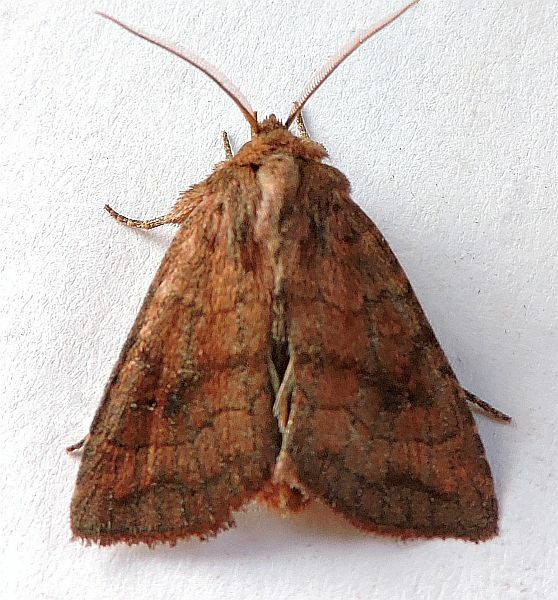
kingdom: Animalia
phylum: Arthropoda
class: Insecta
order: Lepidoptera
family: Noctuidae
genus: Tricholita
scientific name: Tricholita signata
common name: Signate quaker
